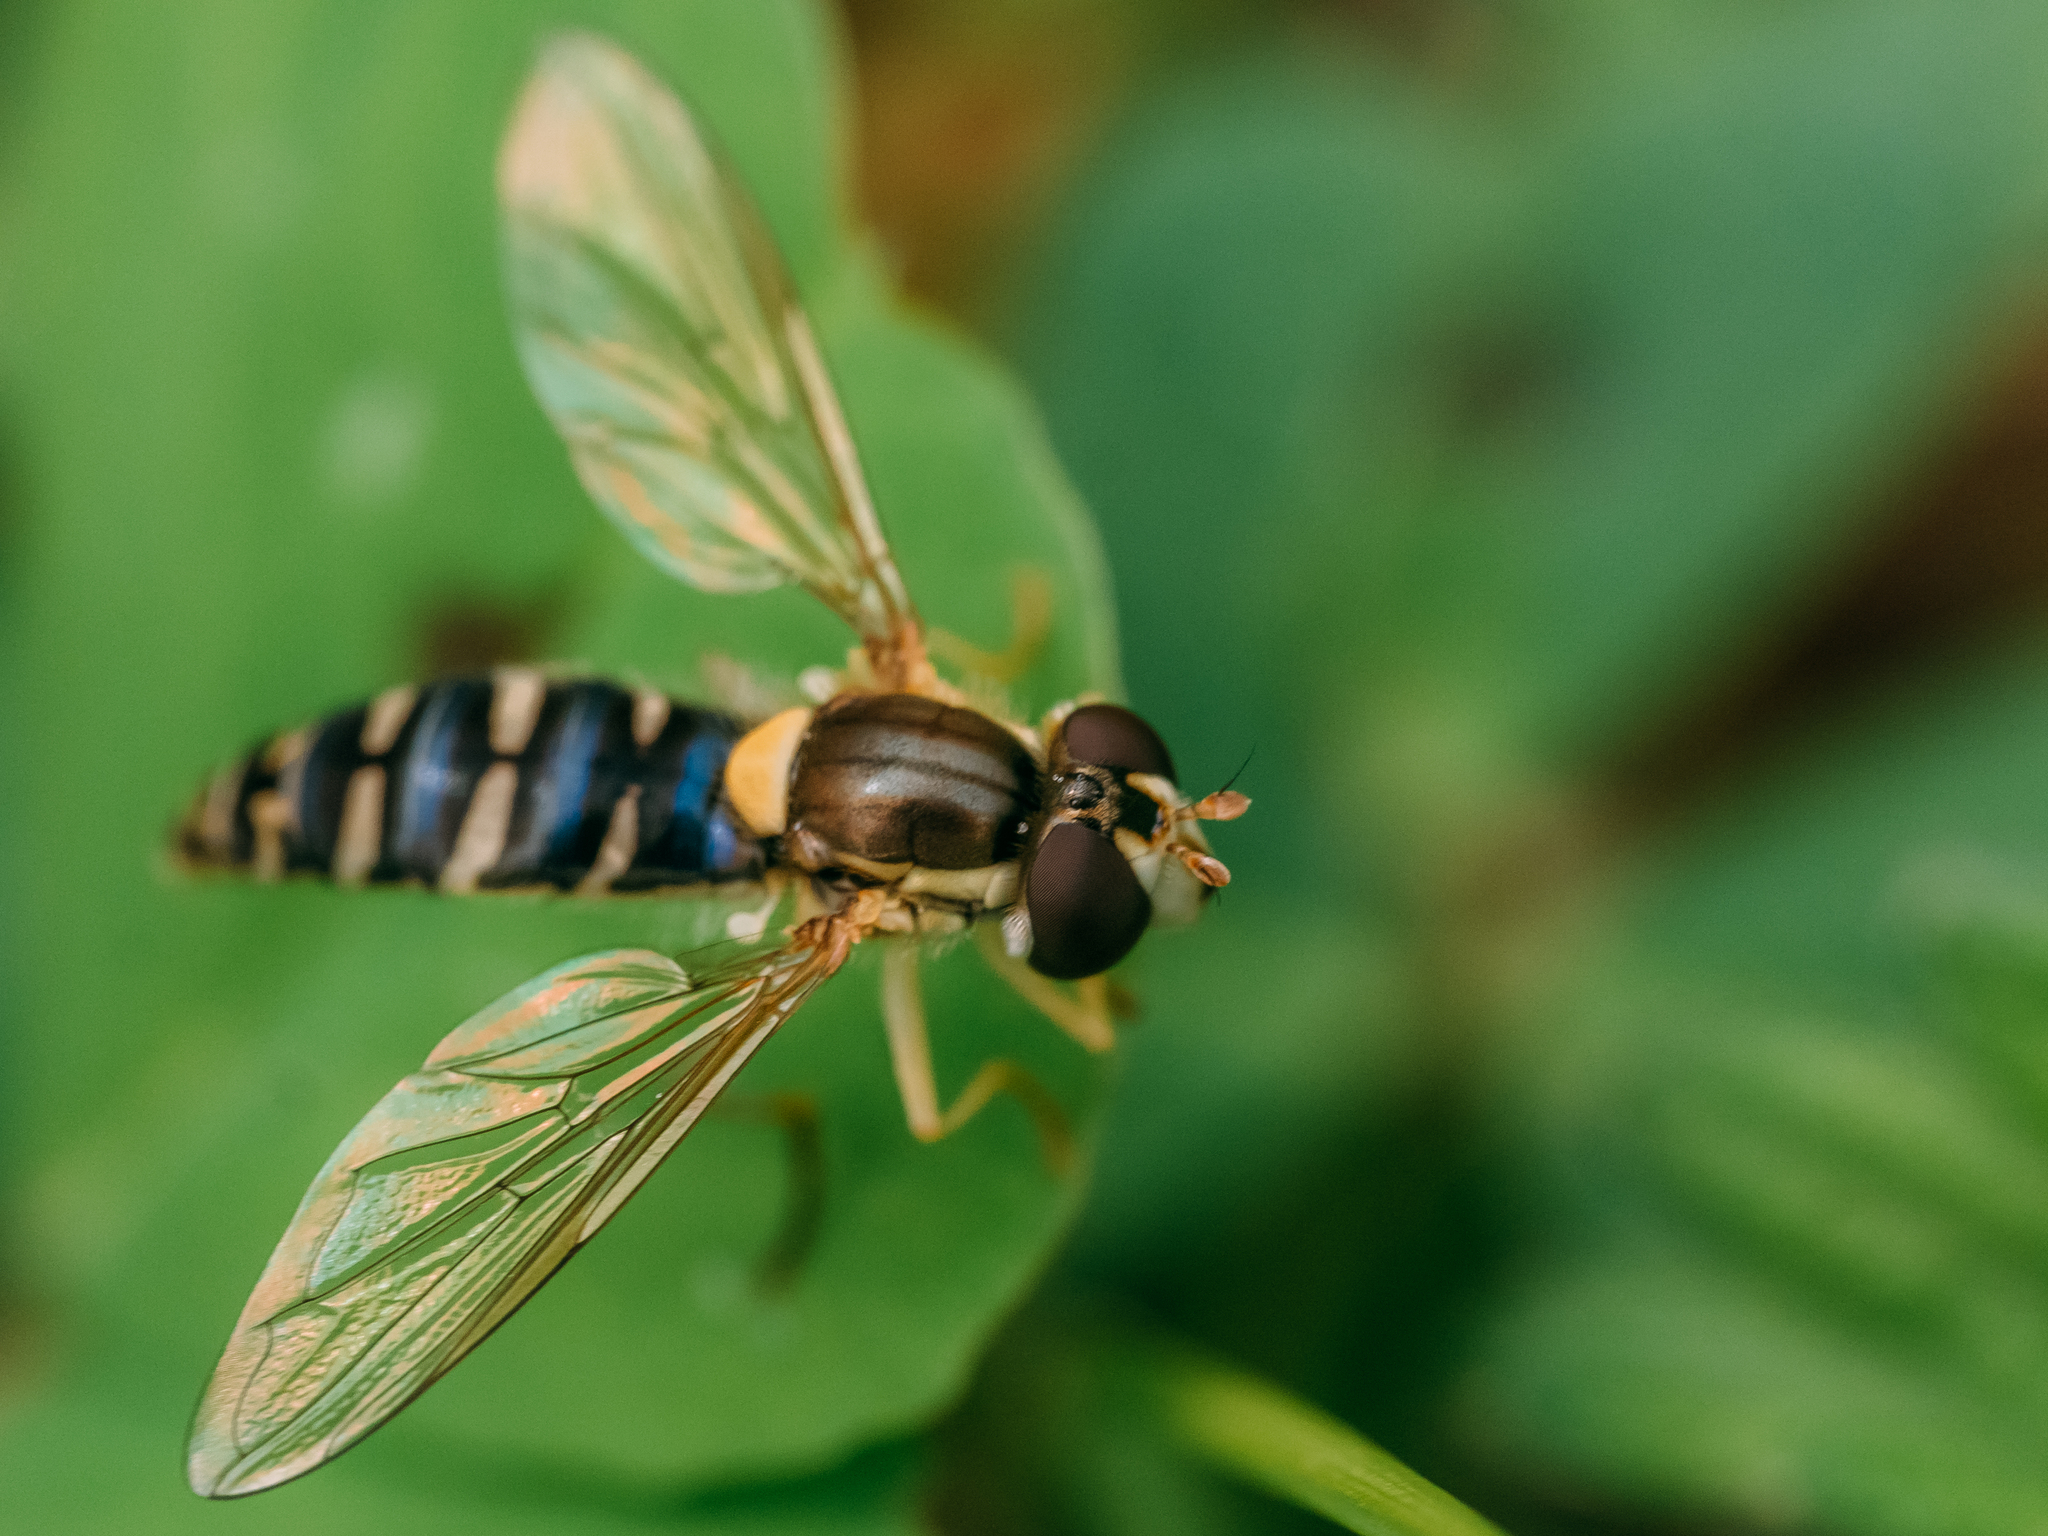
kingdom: Animalia
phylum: Arthropoda
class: Insecta
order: Diptera
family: Syrphidae
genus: Sphaerophoria
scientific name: Sphaerophoria
